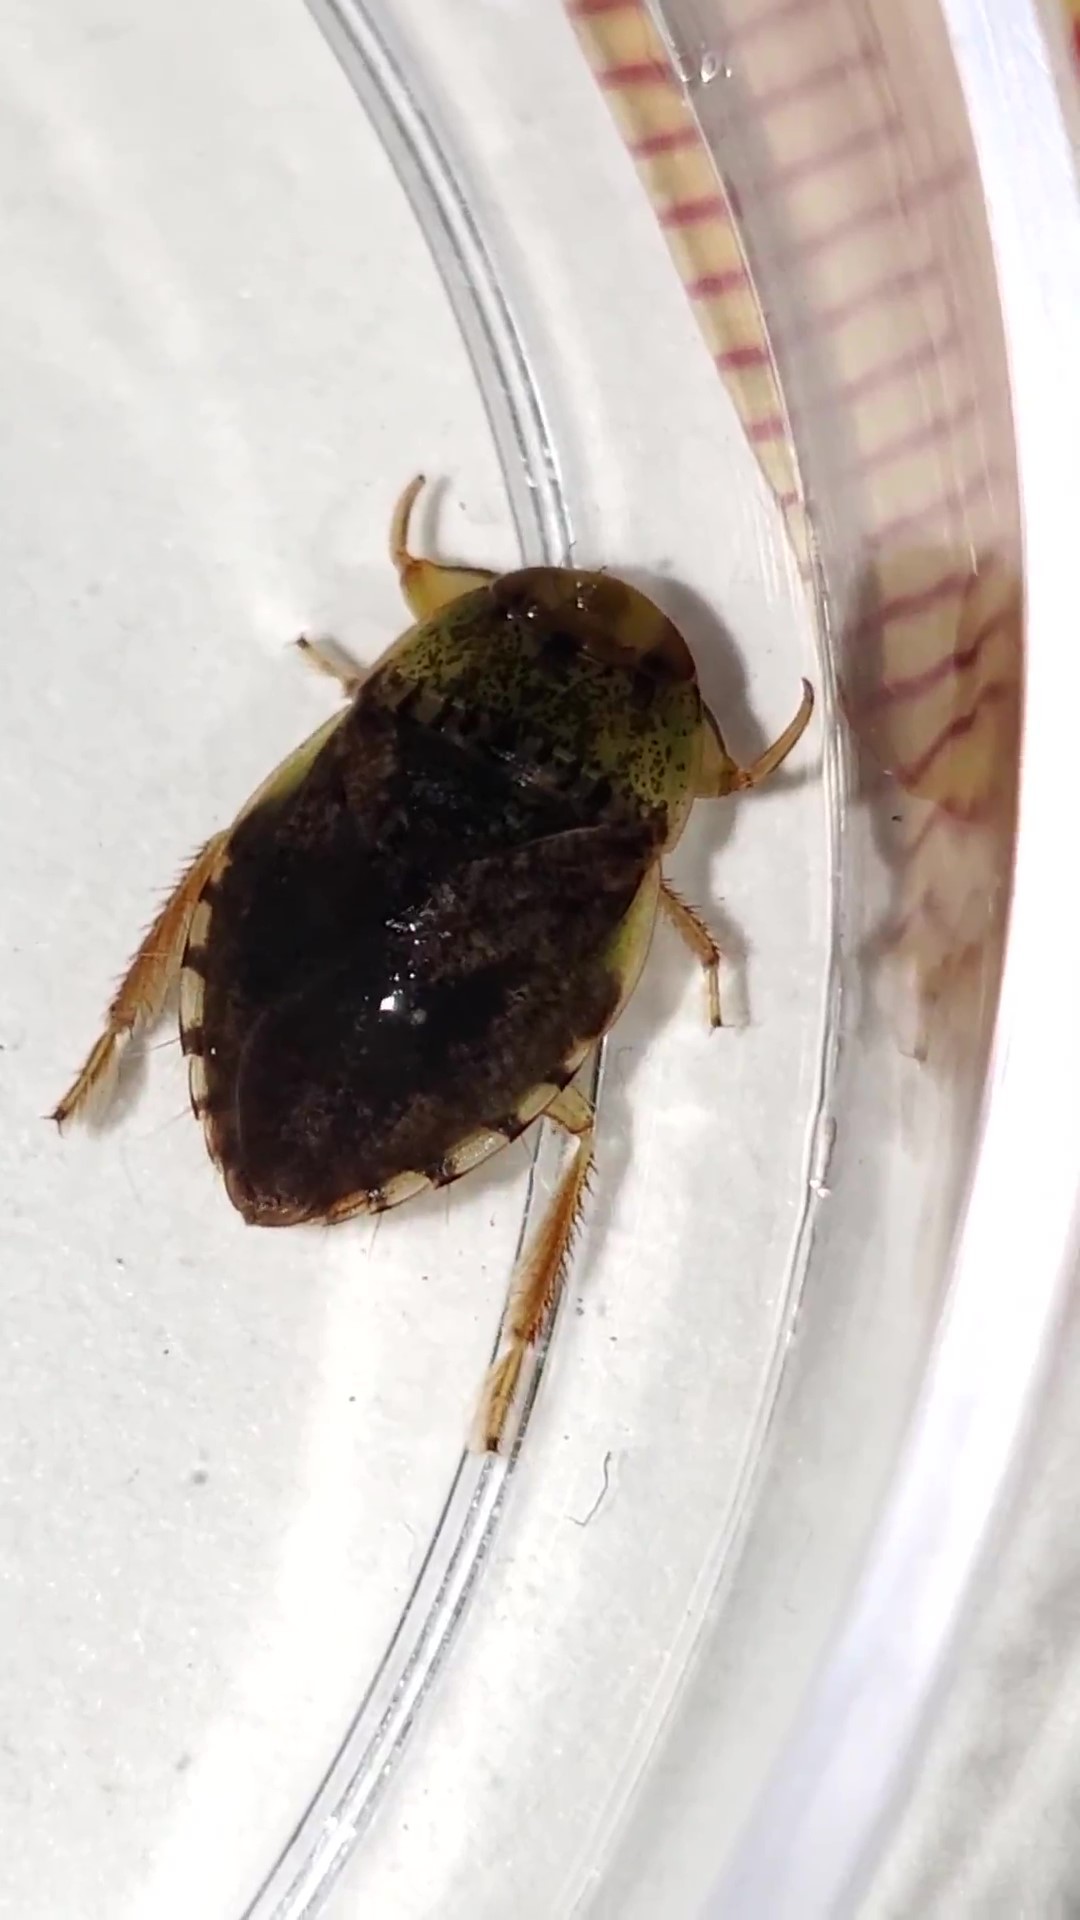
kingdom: Animalia
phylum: Arthropoda
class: Insecta
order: Hemiptera
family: Naucoridae
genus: Pelocoris
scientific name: Pelocoris femoratus
